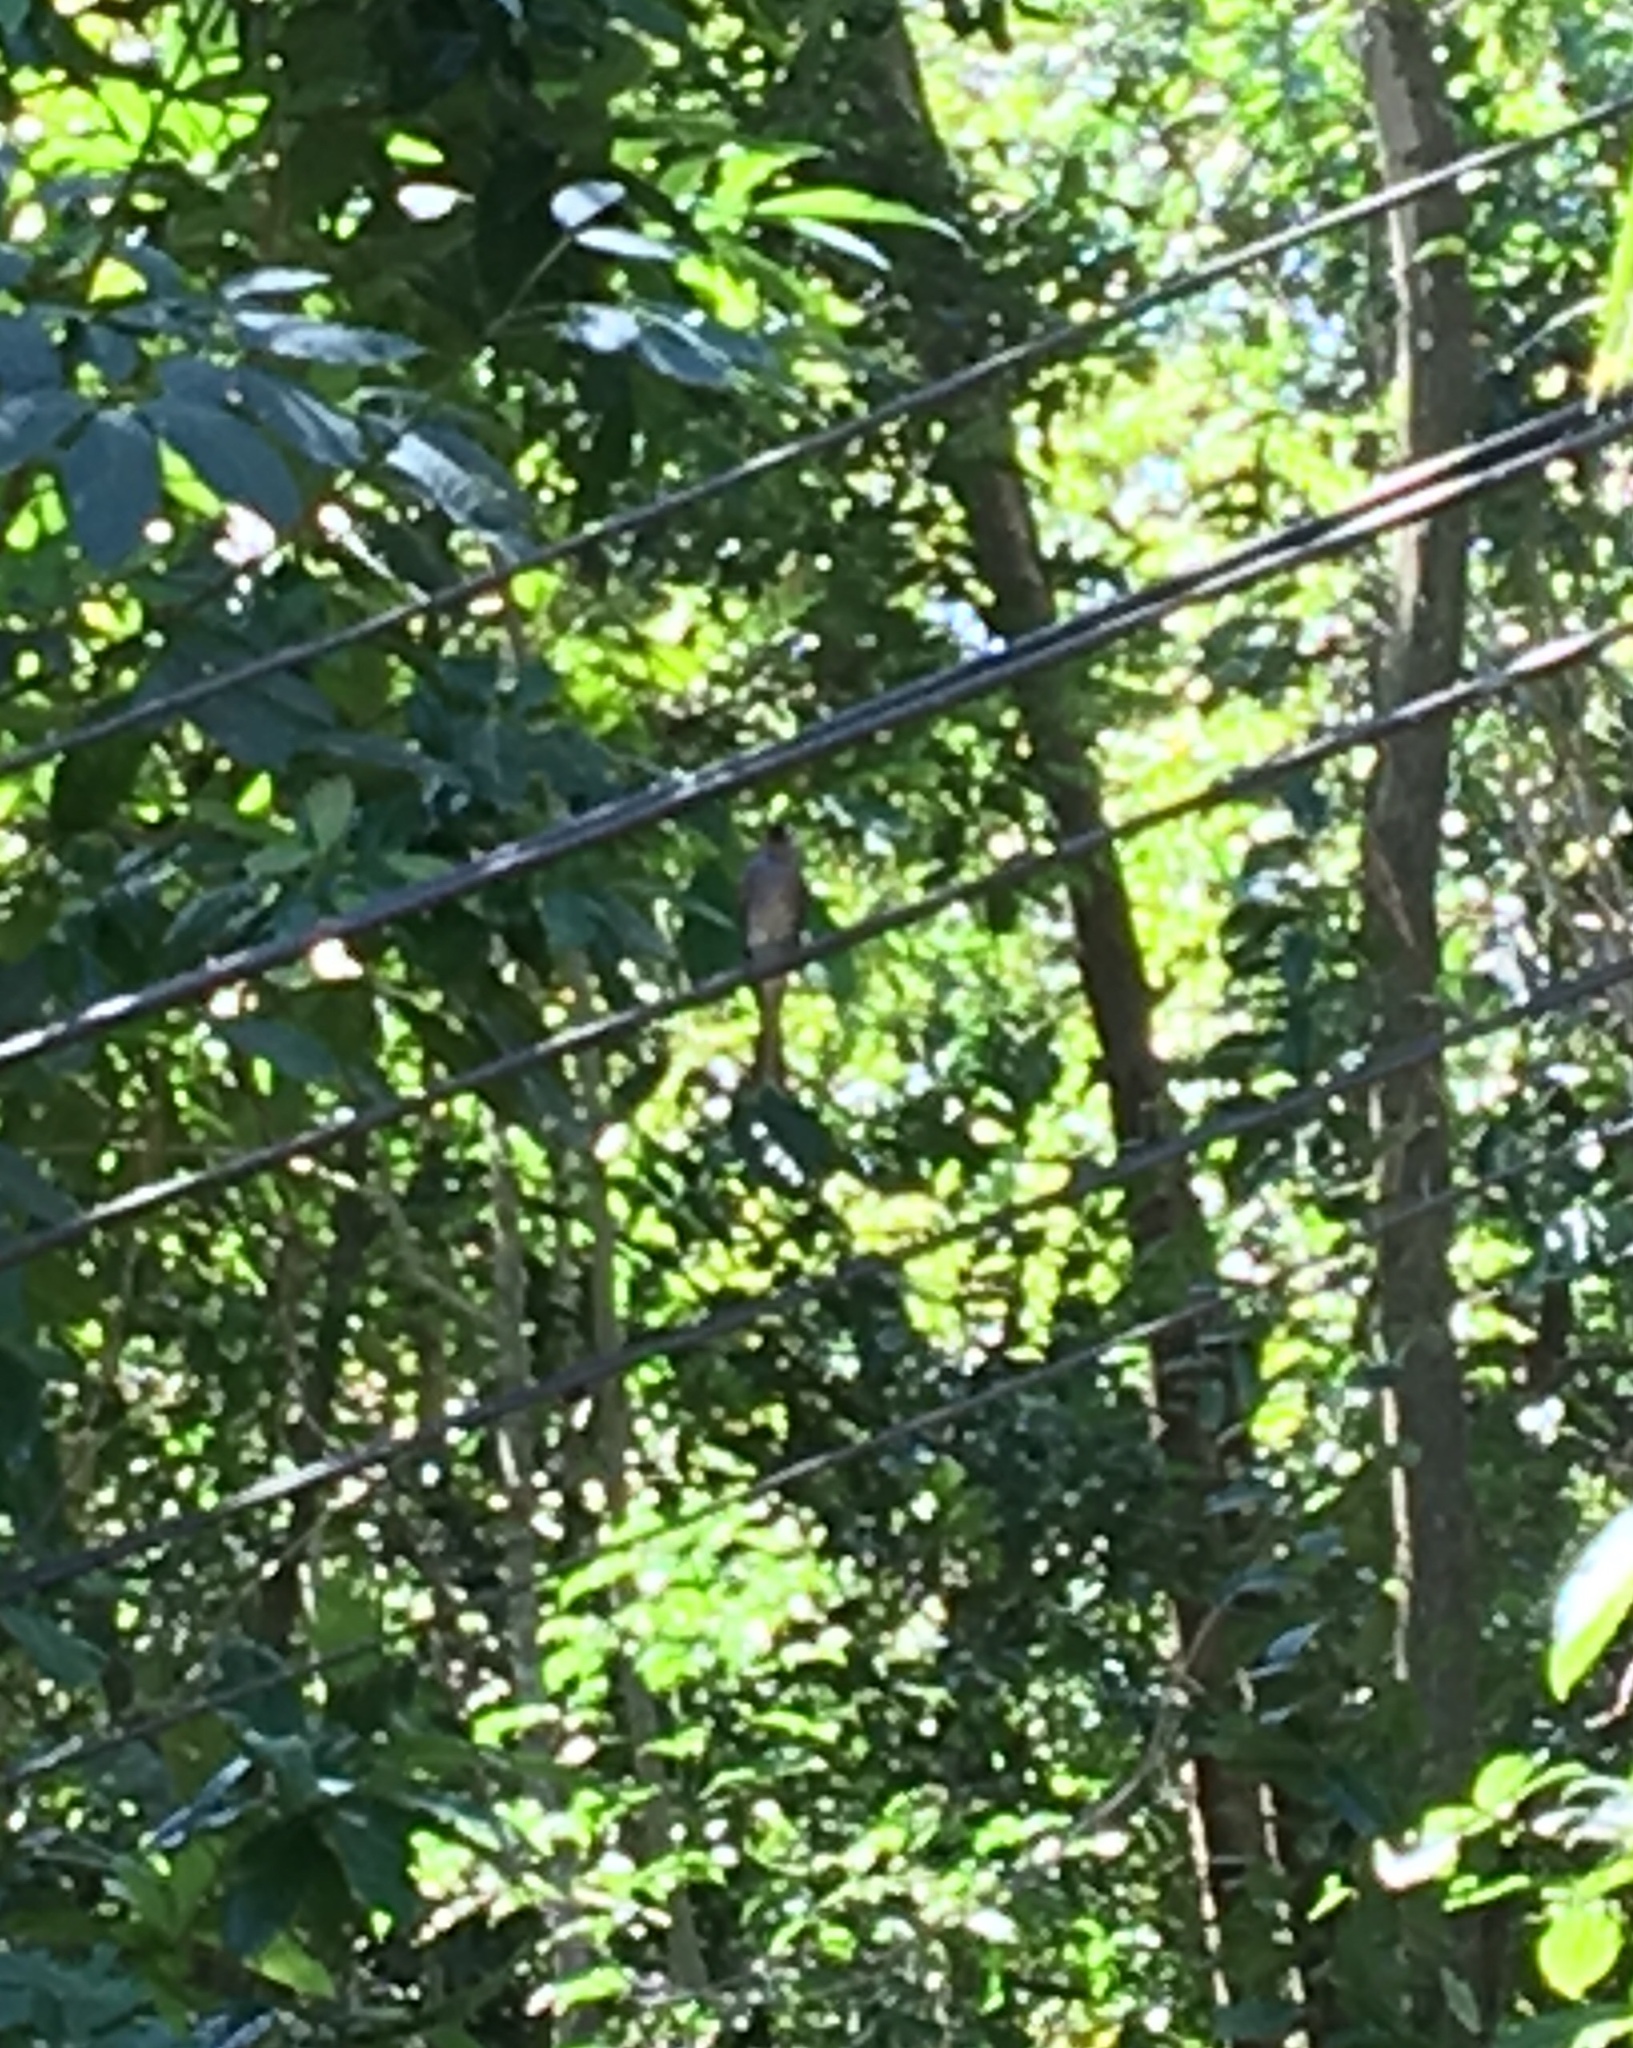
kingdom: Animalia
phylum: Chordata
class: Aves
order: Passeriformes
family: Dicruridae
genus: Dicrurus
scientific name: Dicrurus leucophaeus
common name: Ashy drongo
